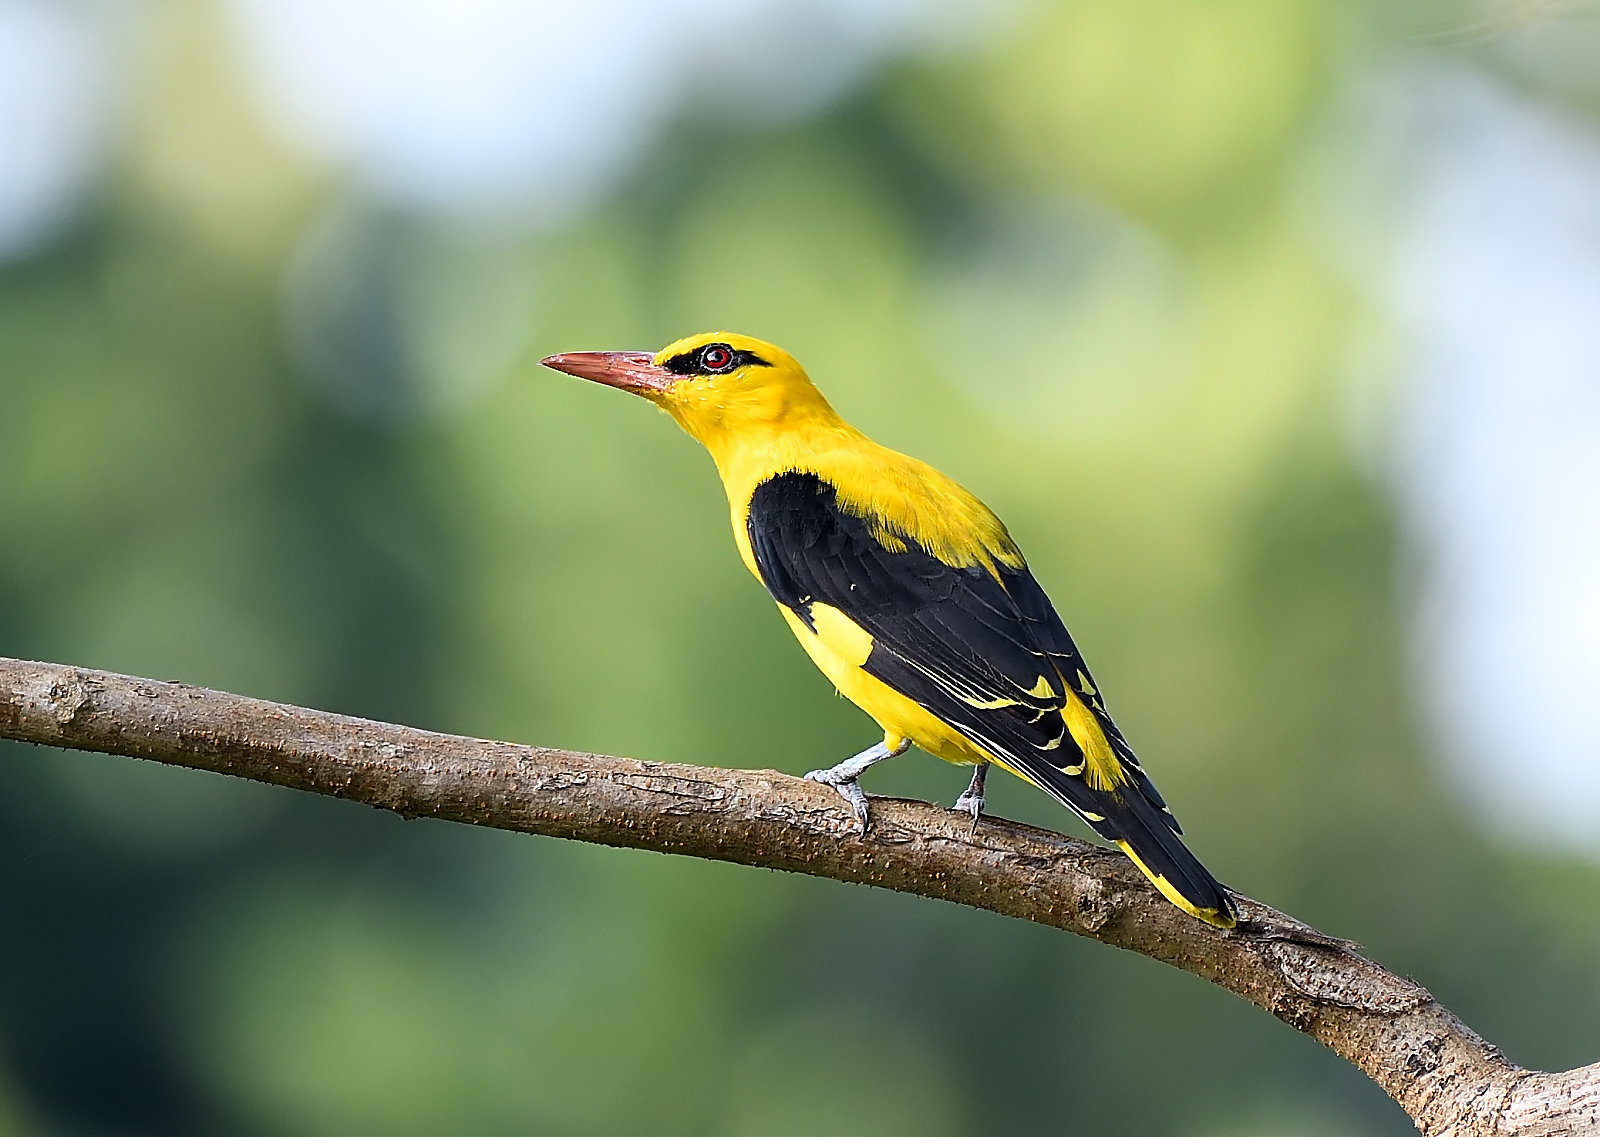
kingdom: Animalia
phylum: Chordata
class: Aves
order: Passeriformes
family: Oriolidae
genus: Oriolus
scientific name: Oriolus kundoo
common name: Indian golden oriole
